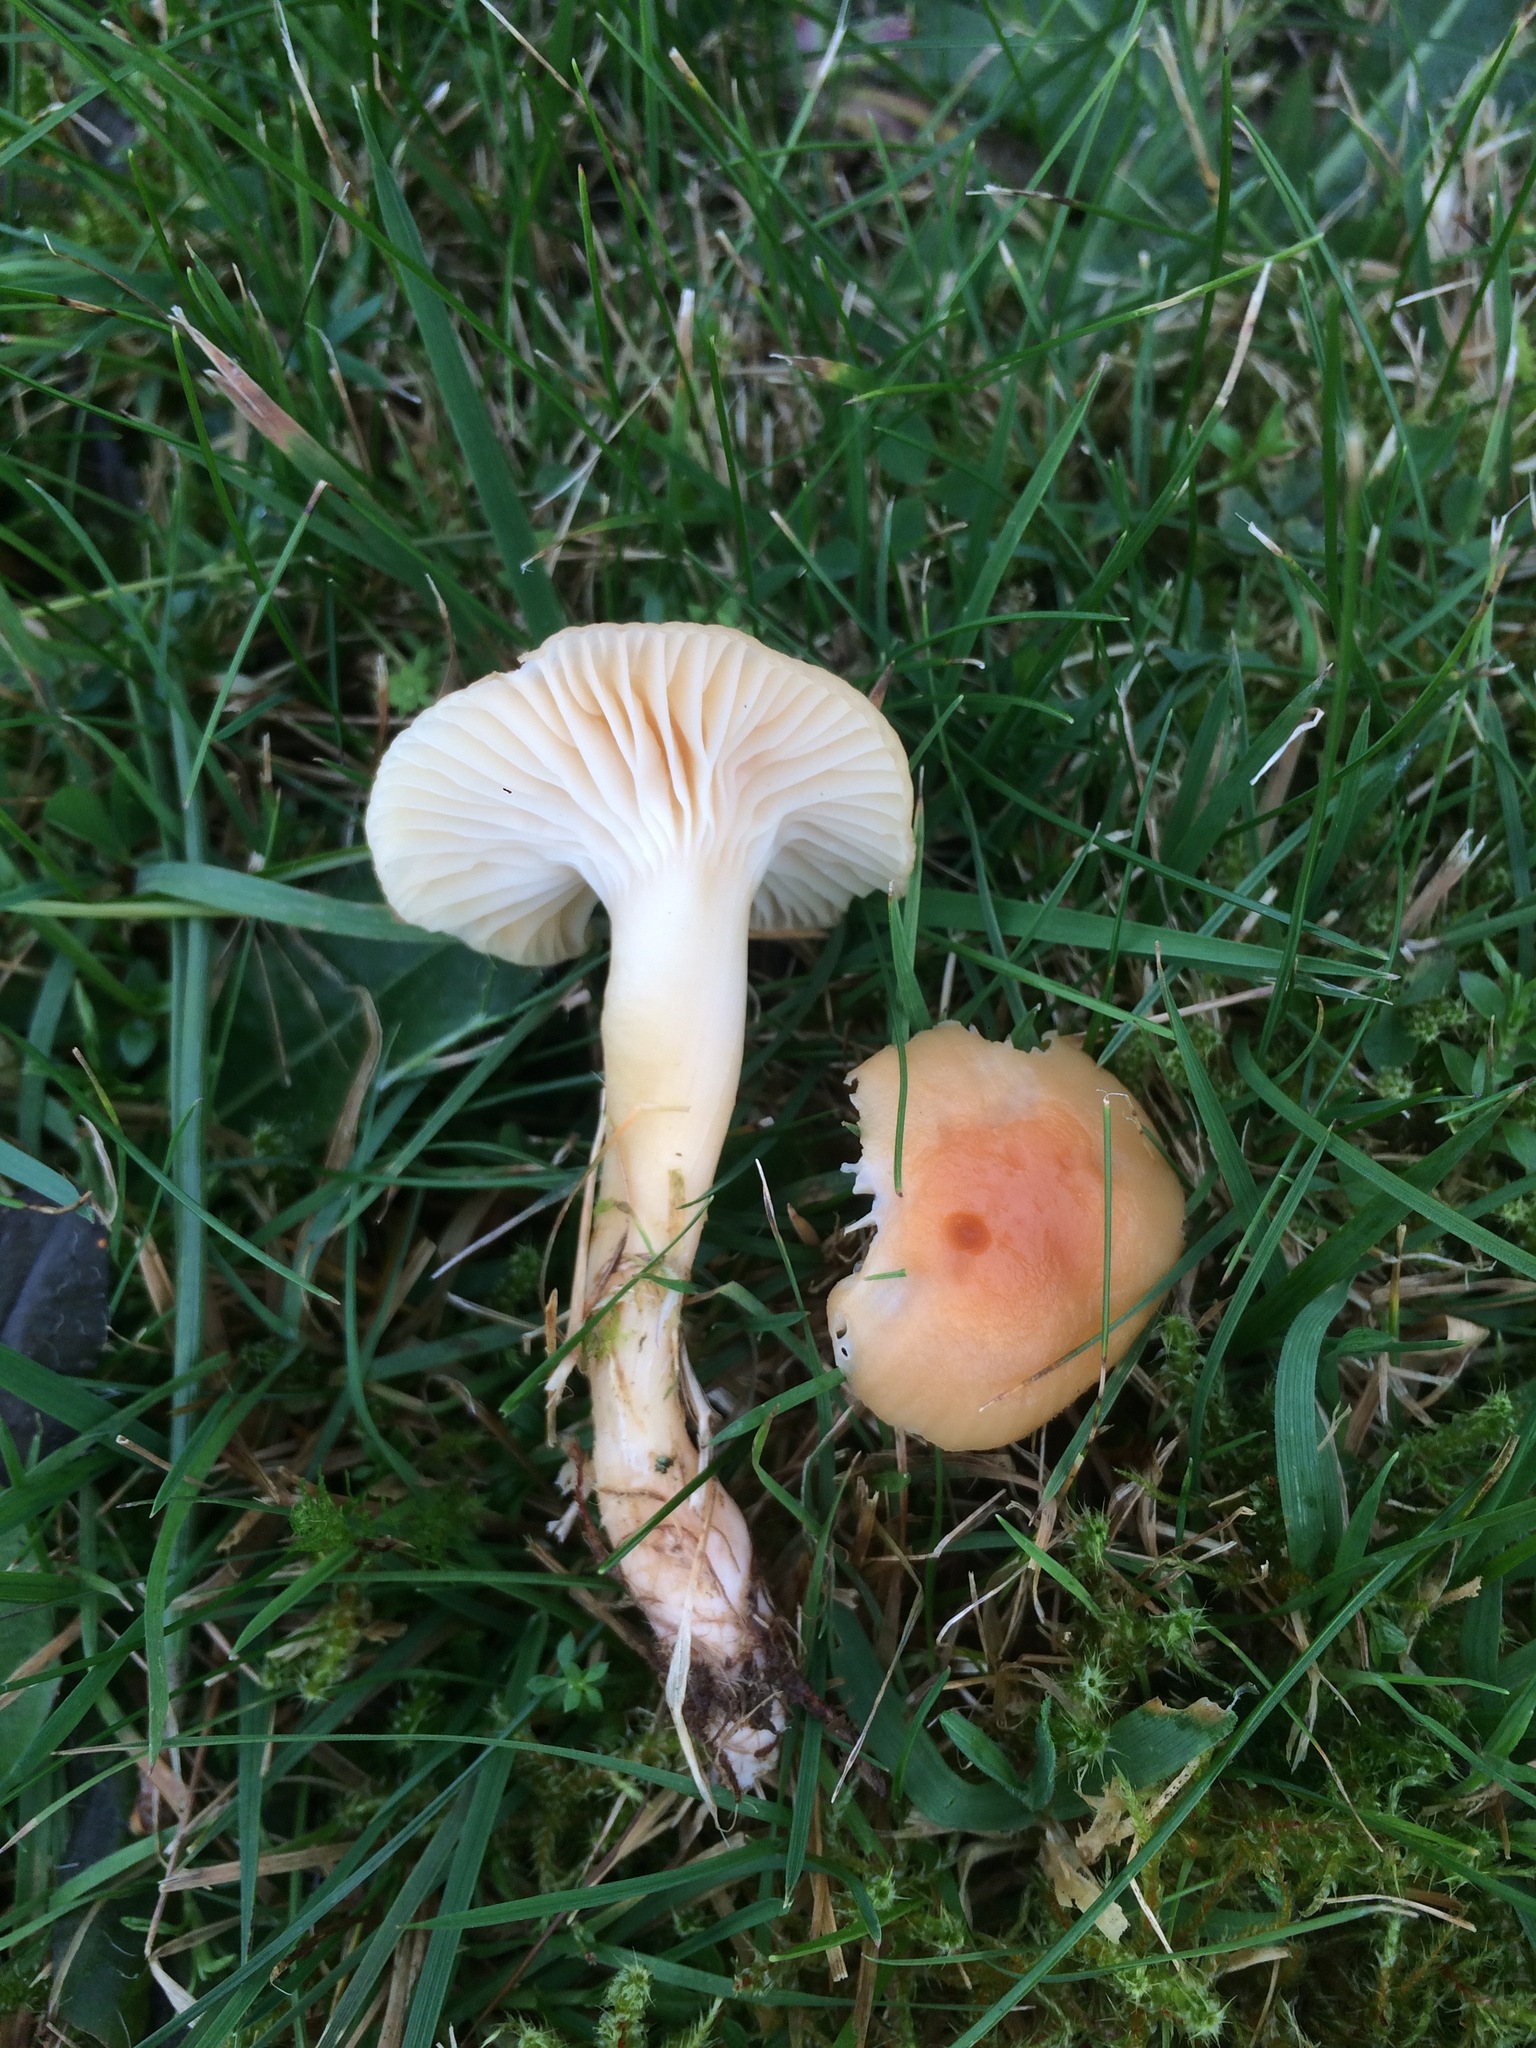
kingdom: Fungi
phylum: Basidiomycota
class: Agaricomycetes
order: Agaricales
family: Hygrophoraceae
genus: Cuphophyllus
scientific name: Cuphophyllus pratensis
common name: Meadow waxcap
